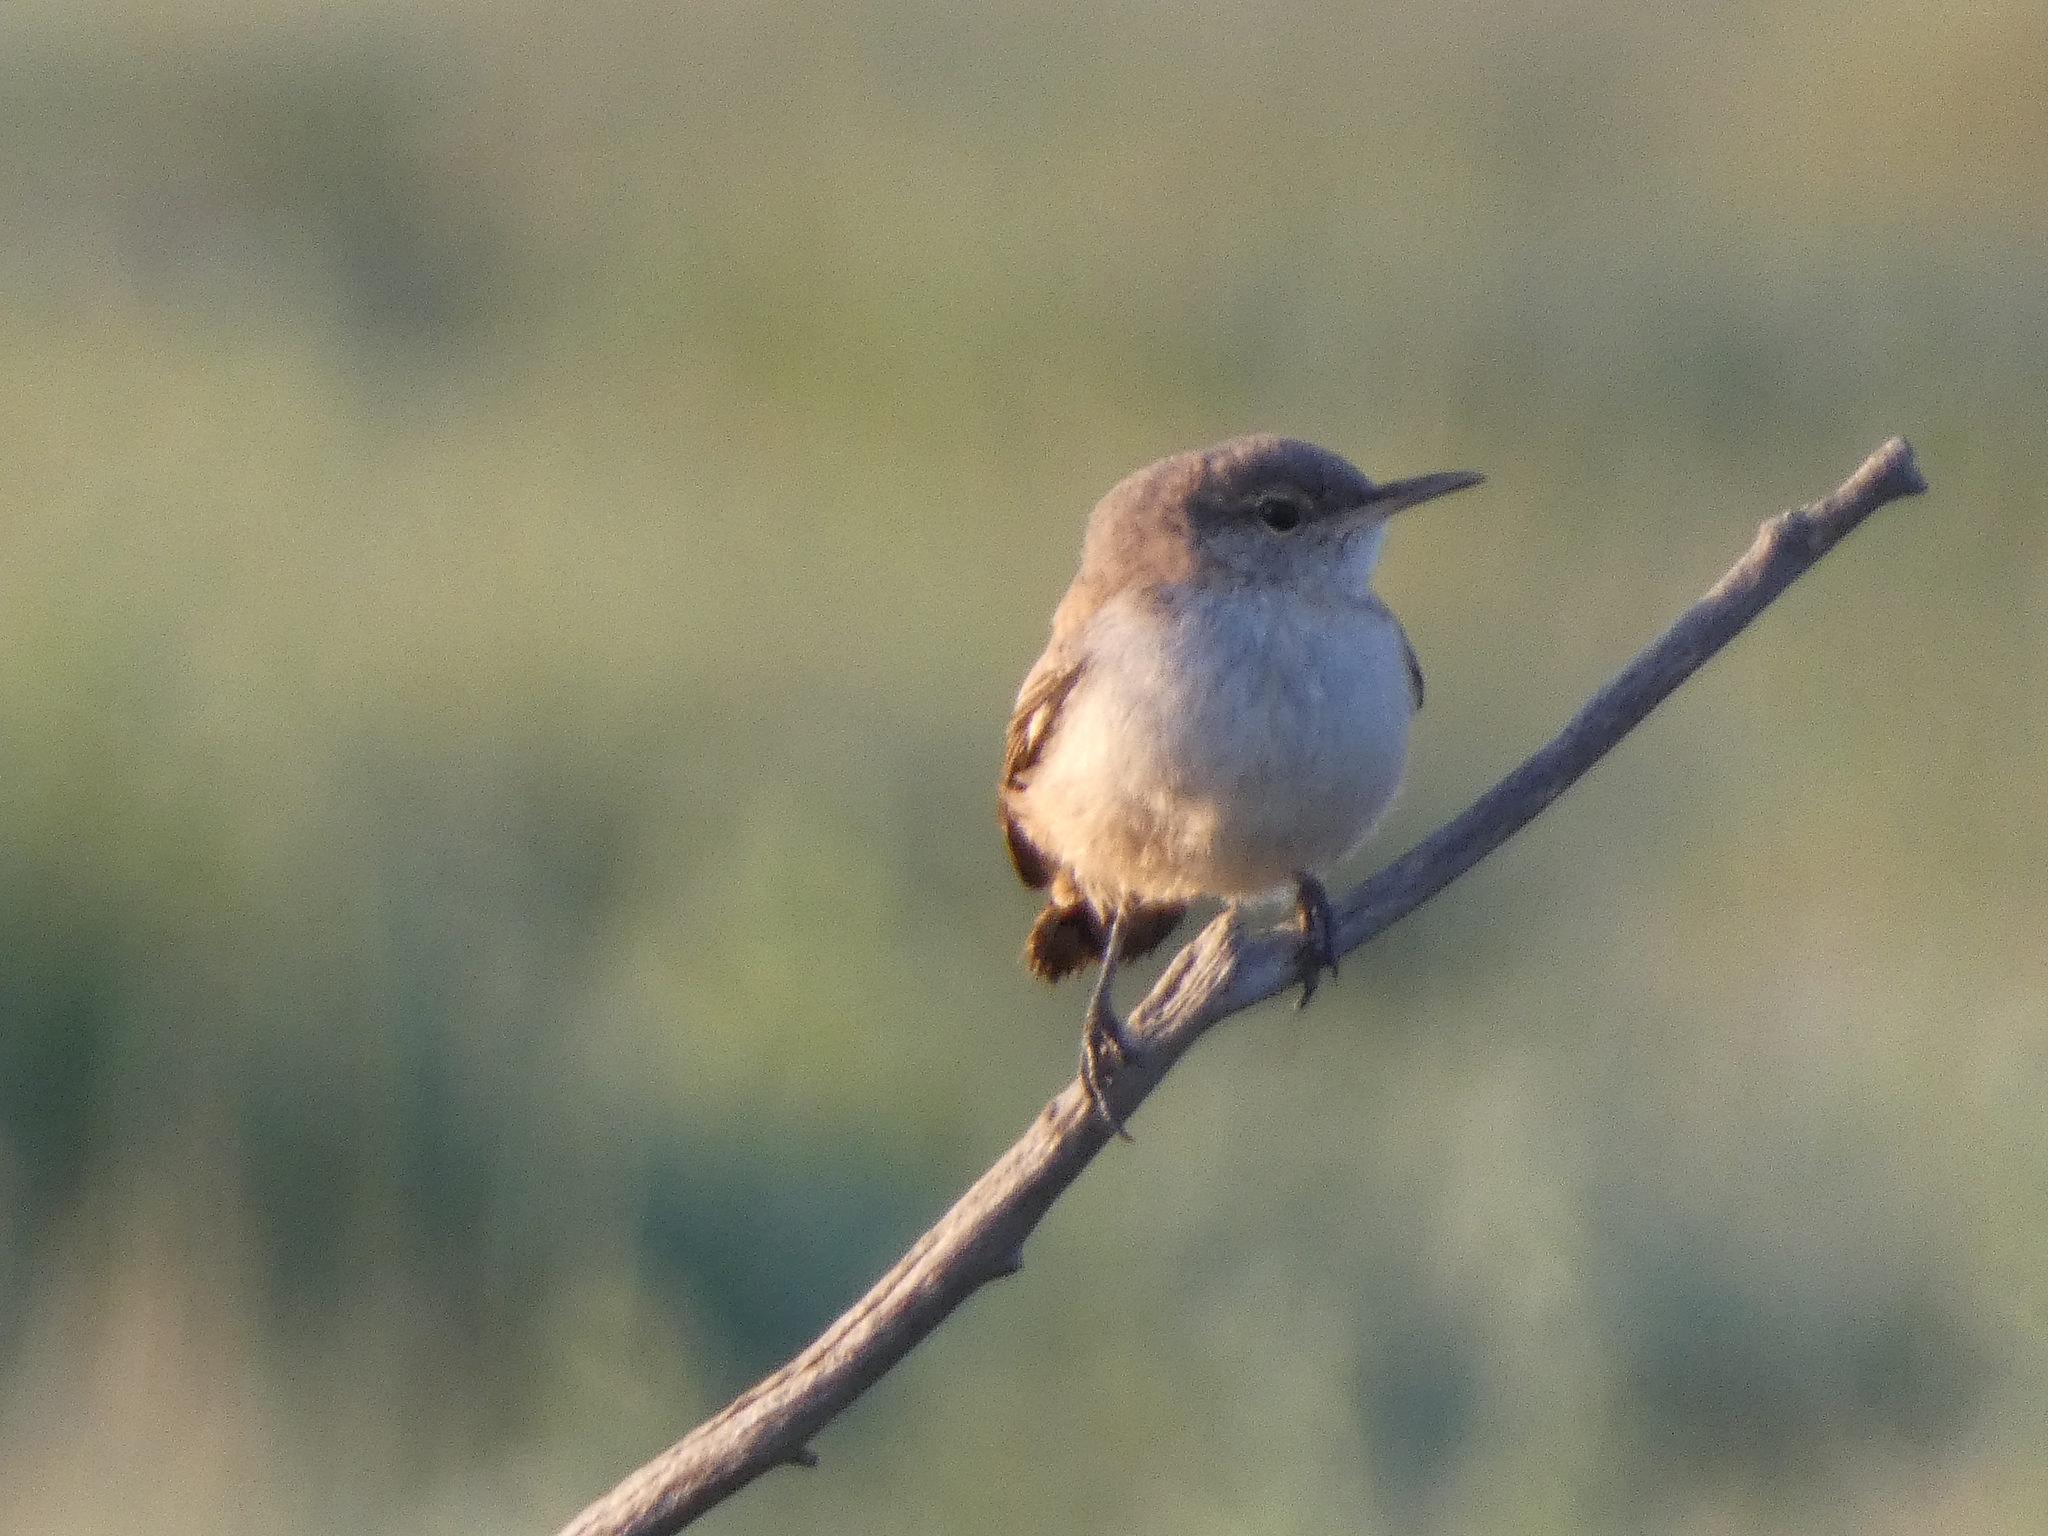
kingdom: Animalia
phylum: Chordata
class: Aves
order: Passeriformes
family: Troglodytidae
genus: Troglodytes
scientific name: Troglodytes aedon
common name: House wren
